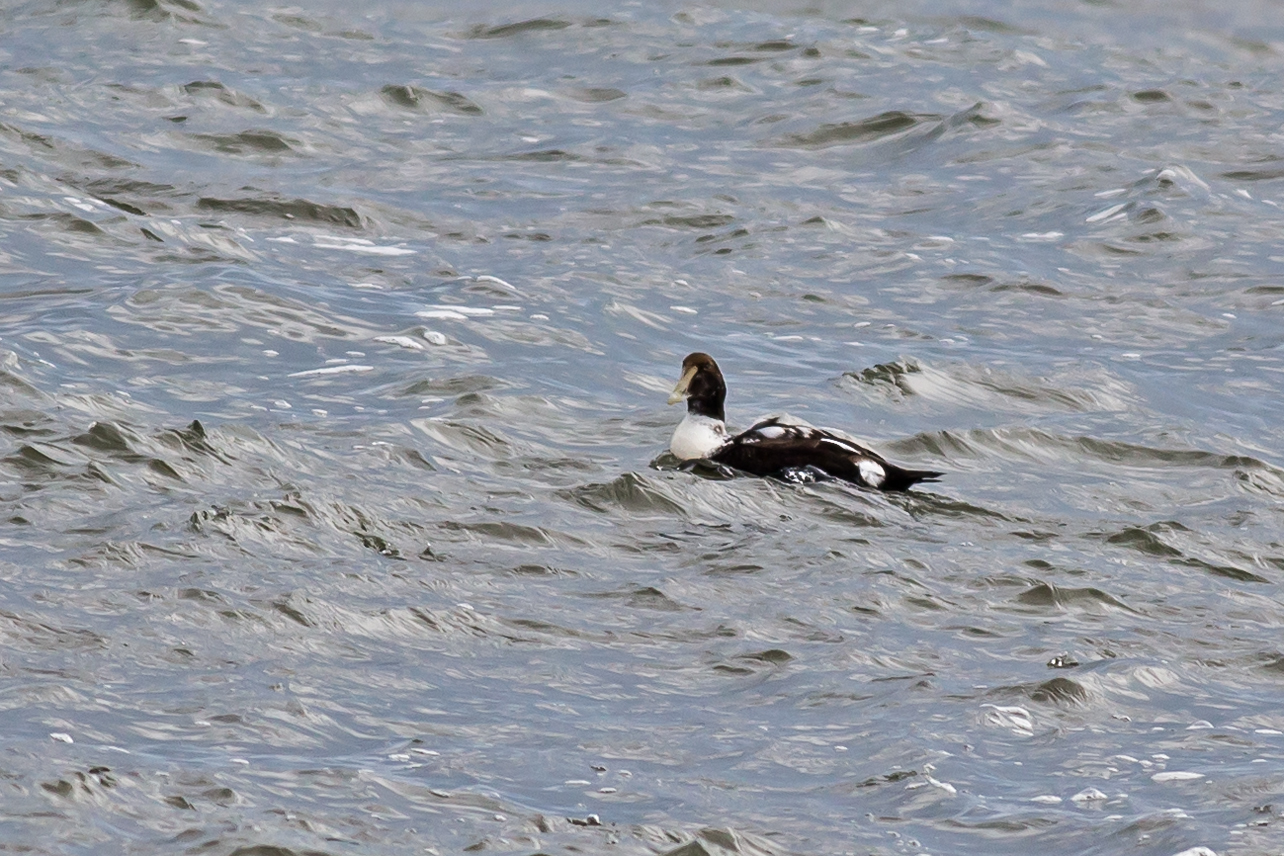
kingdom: Animalia
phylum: Chordata
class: Aves
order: Anseriformes
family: Anatidae
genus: Somateria
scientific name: Somateria mollissima
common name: Common eider
